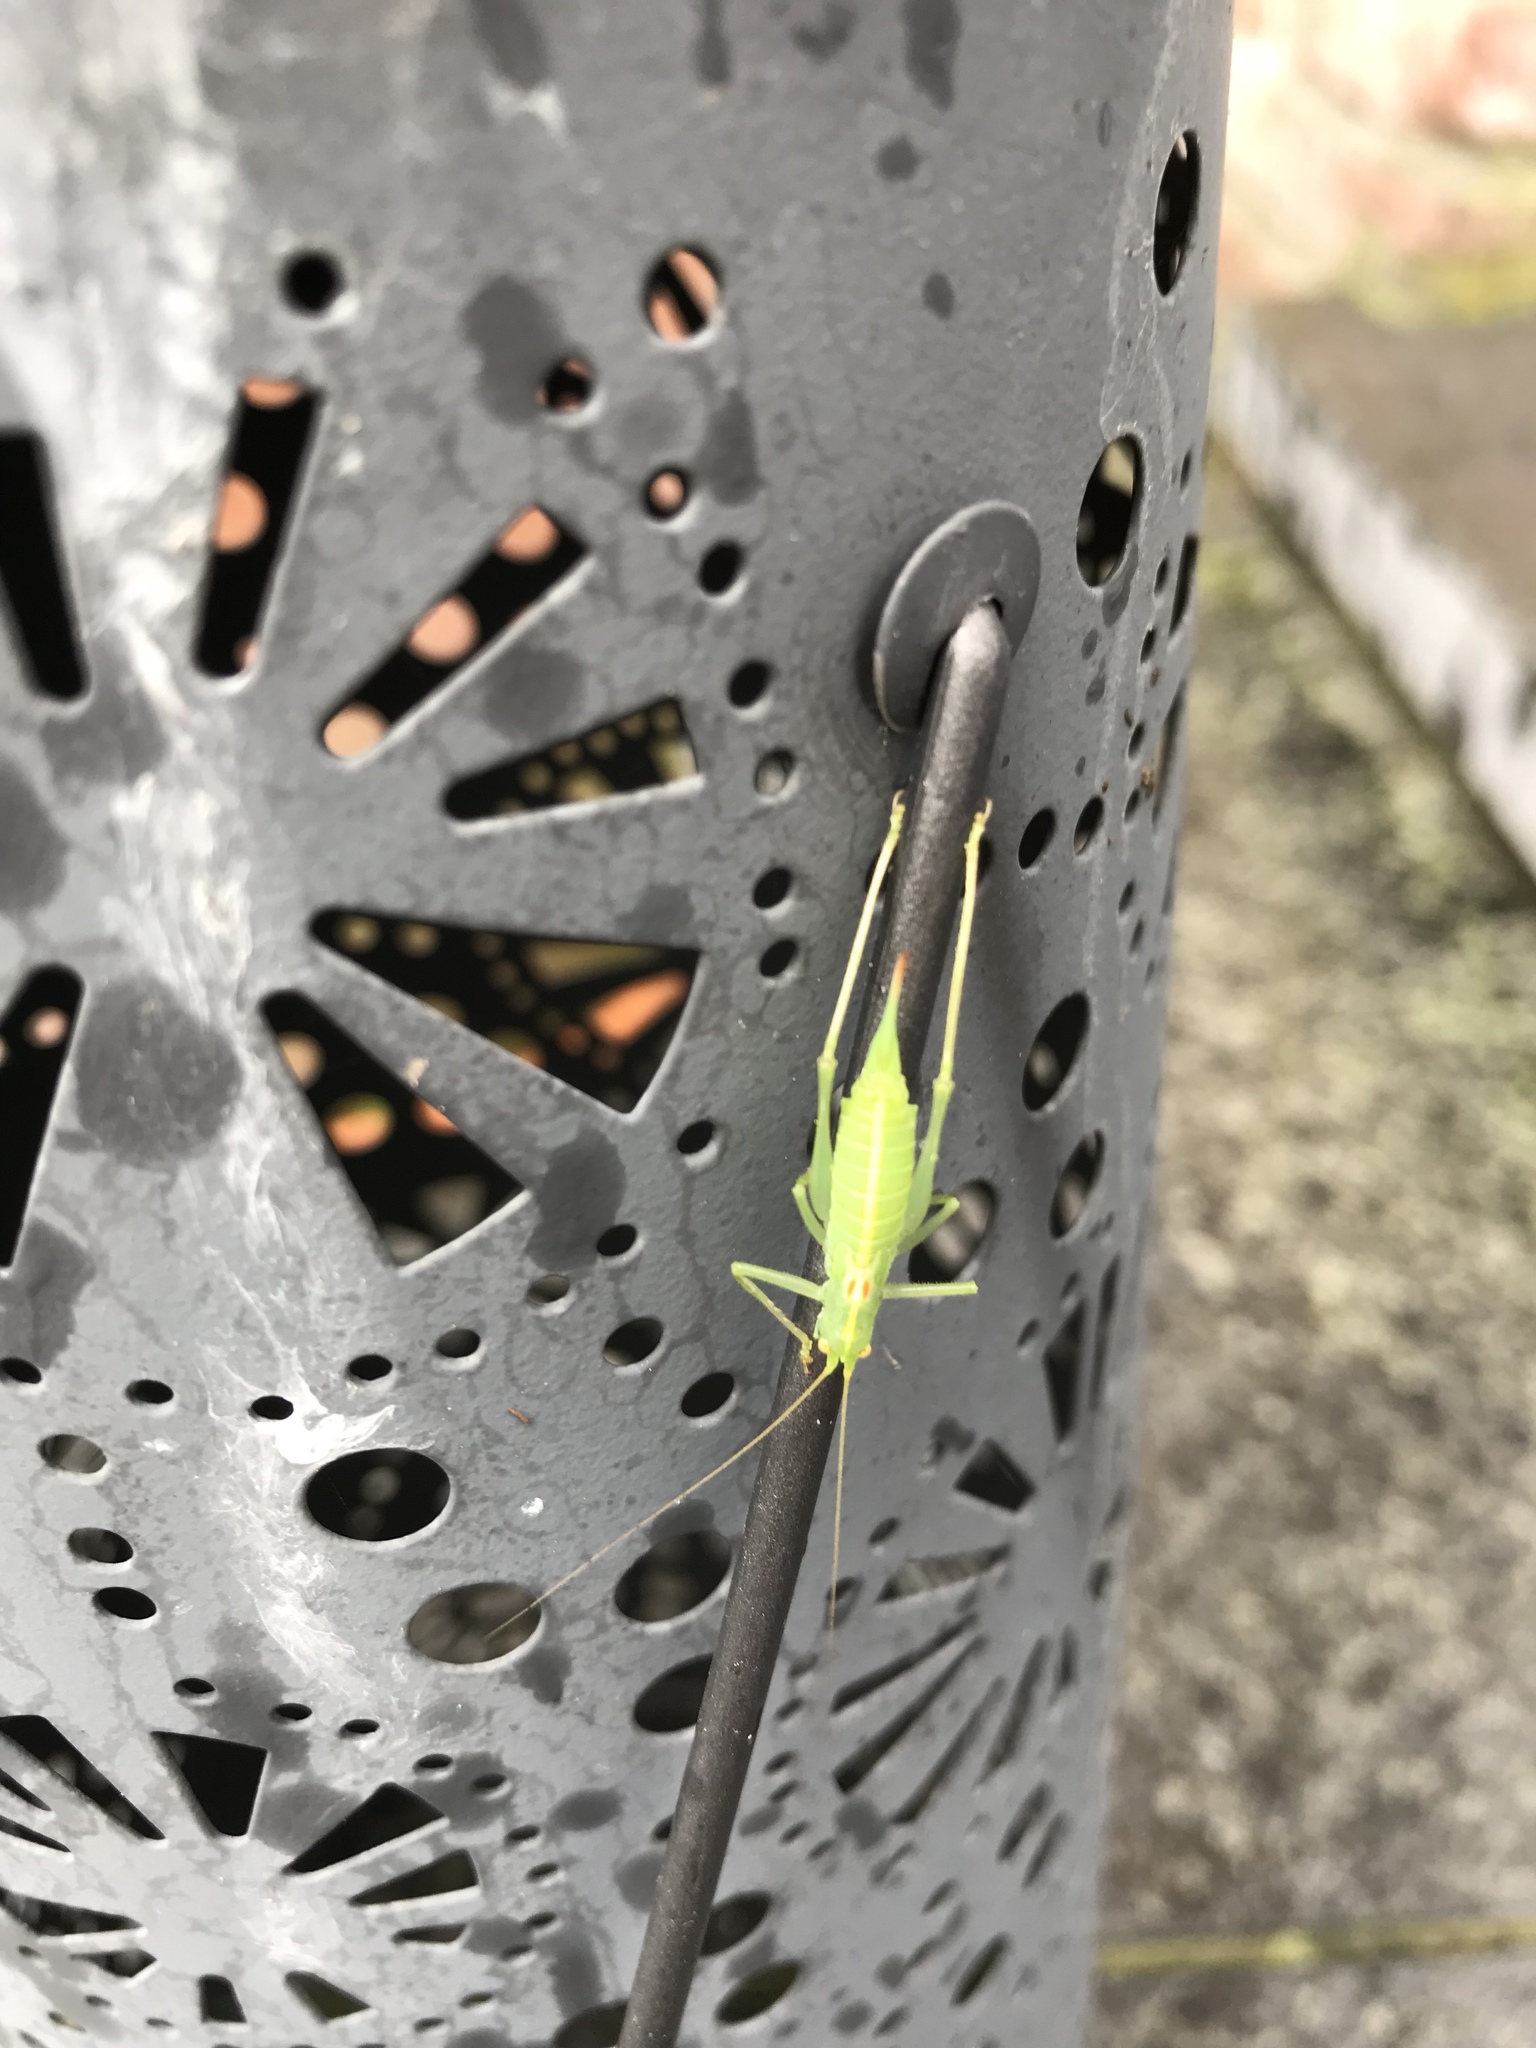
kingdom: Animalia
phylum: Arthropoda
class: Insecta
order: Orthoptera
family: Tettigoniidae
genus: Meconema
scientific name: Meconema meridionale
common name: Southern oak bush-cricket
